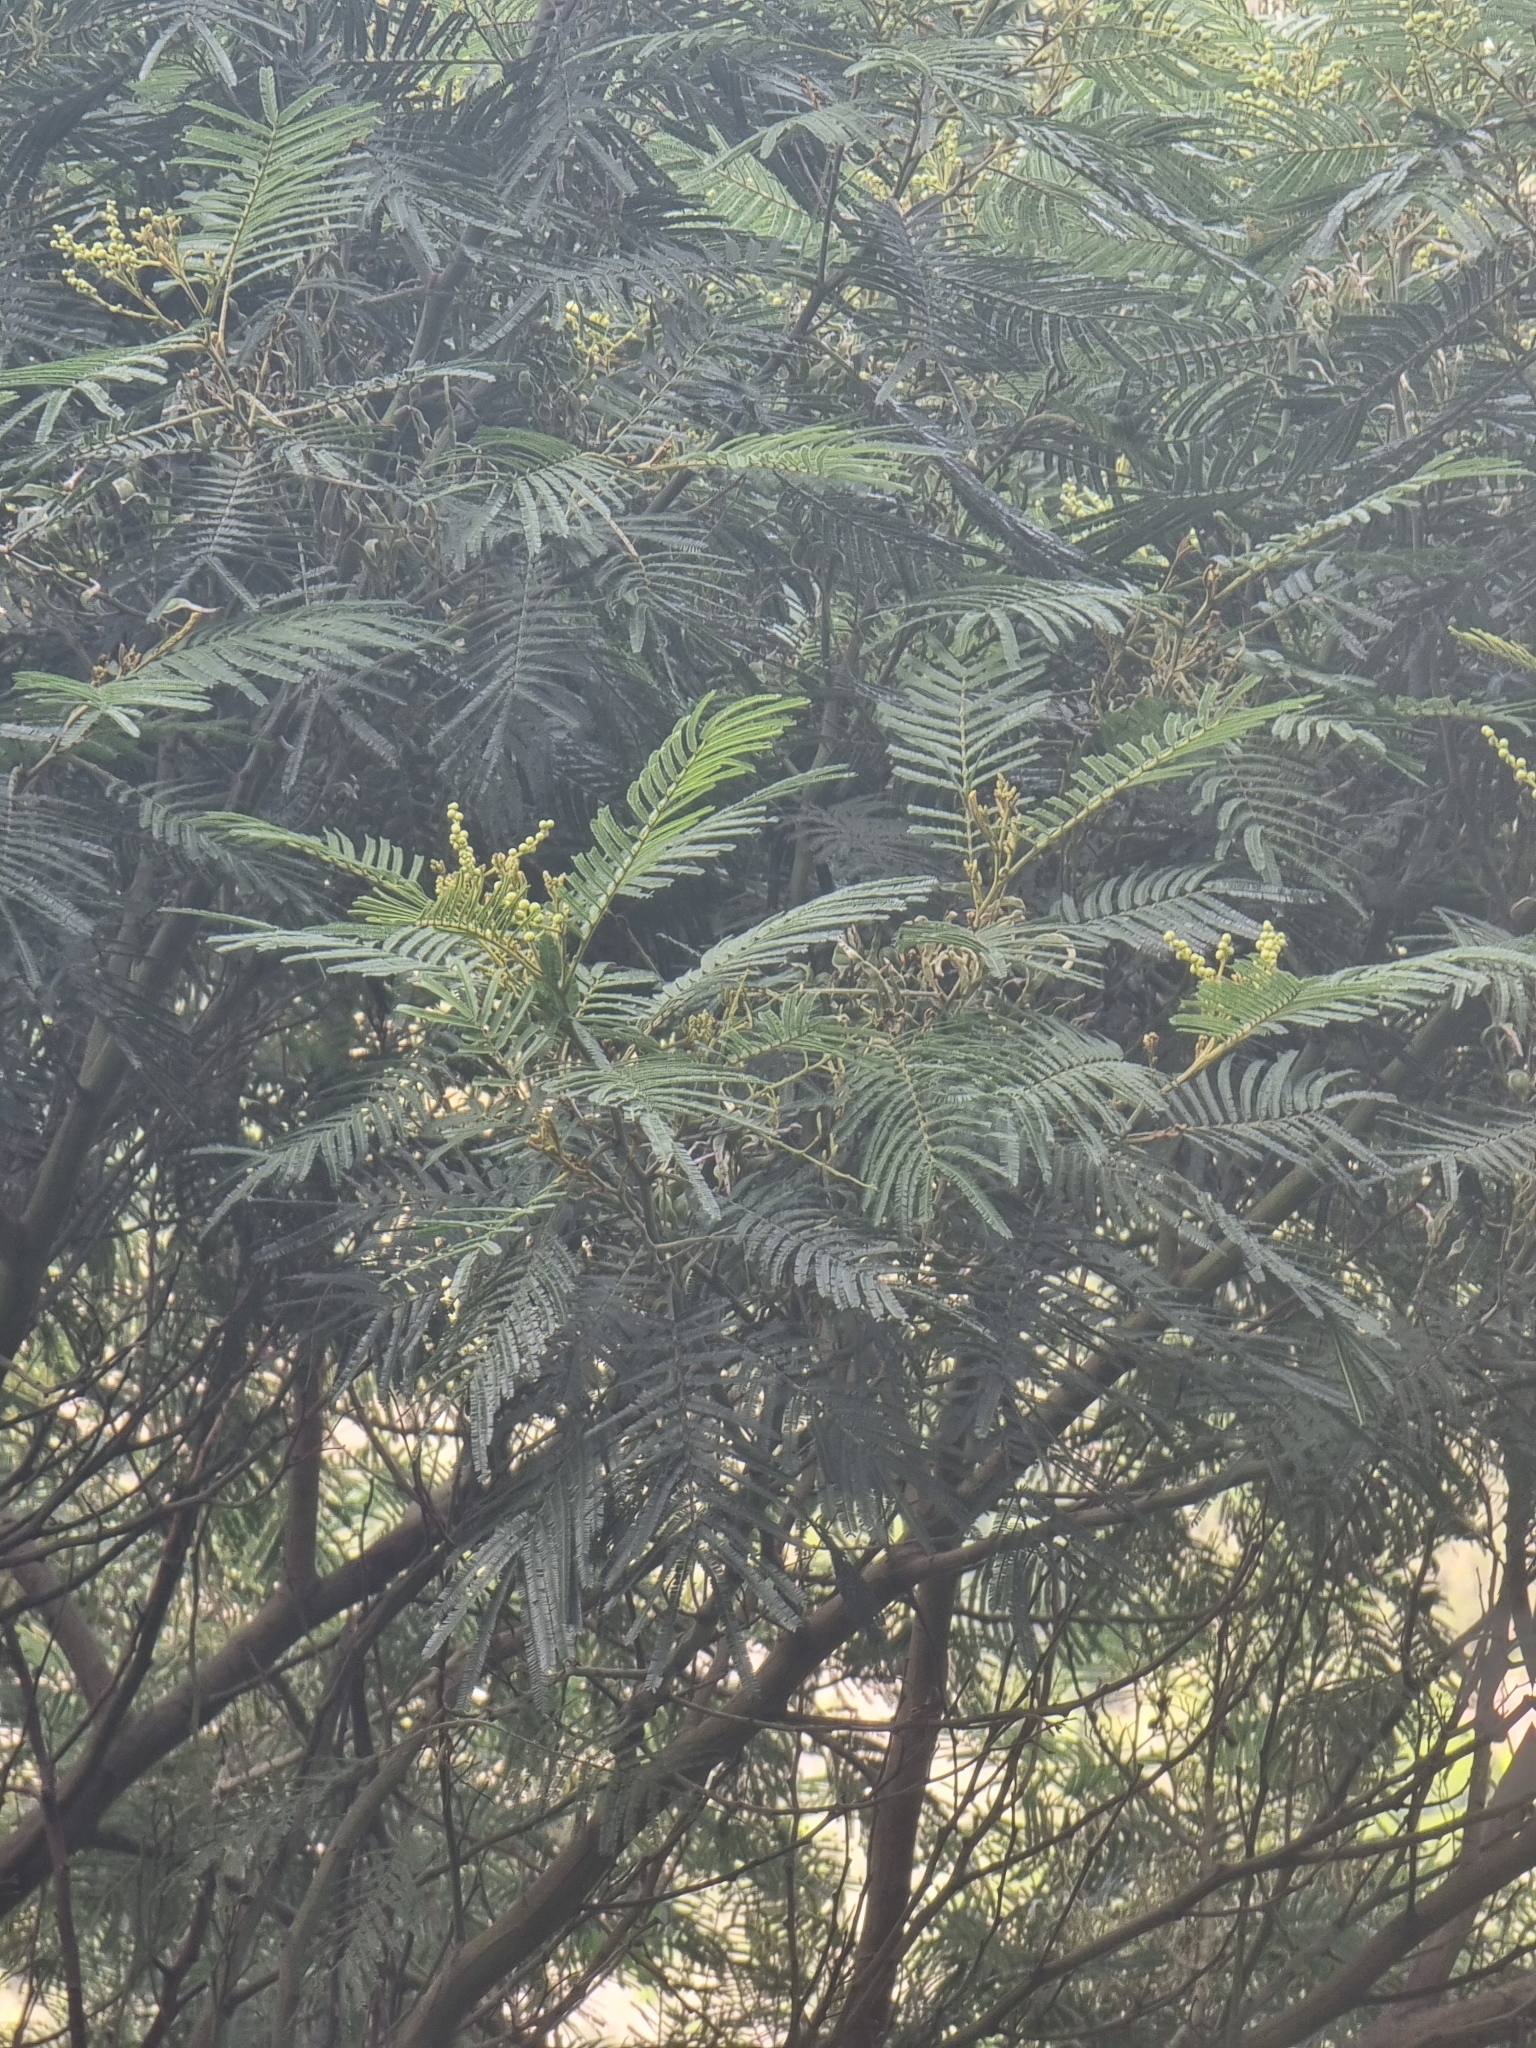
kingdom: Plantae
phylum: Tracheophyta
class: Magnoliopsida
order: Fabales
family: Fabaceae
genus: Acacia
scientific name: Acacia mearnsii
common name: Black wattle
